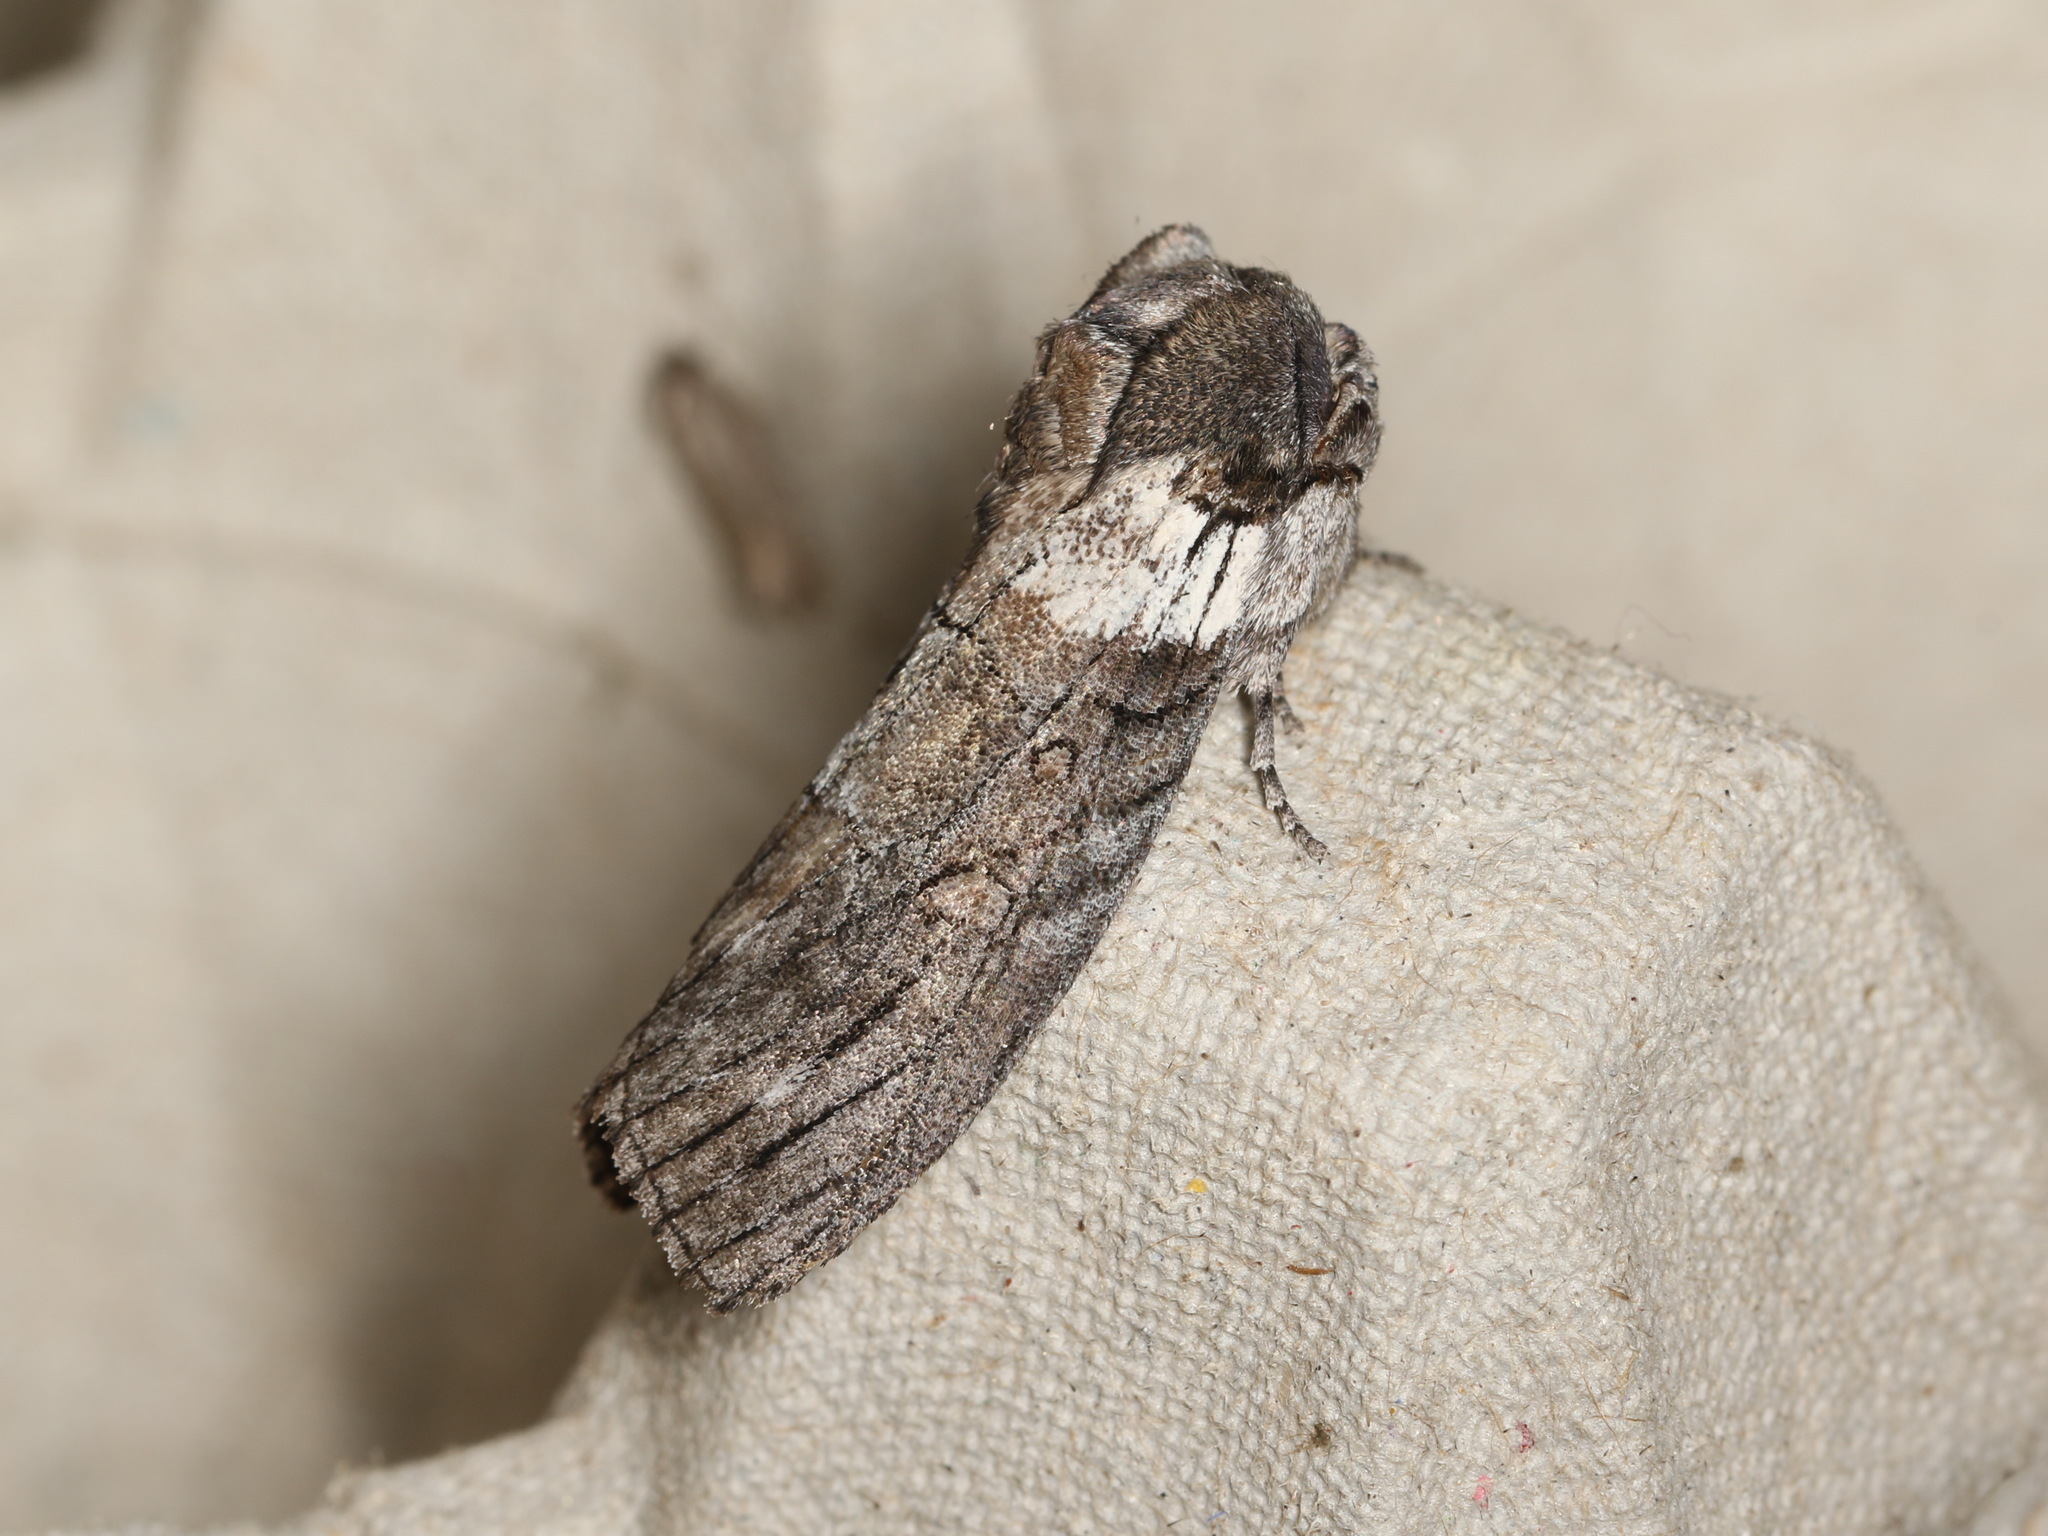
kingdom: Animalia
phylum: Arthropoda
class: Insecta
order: Lepidoptera
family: Oenosandridae
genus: Discophlebia
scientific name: Discophlebia catocalina
